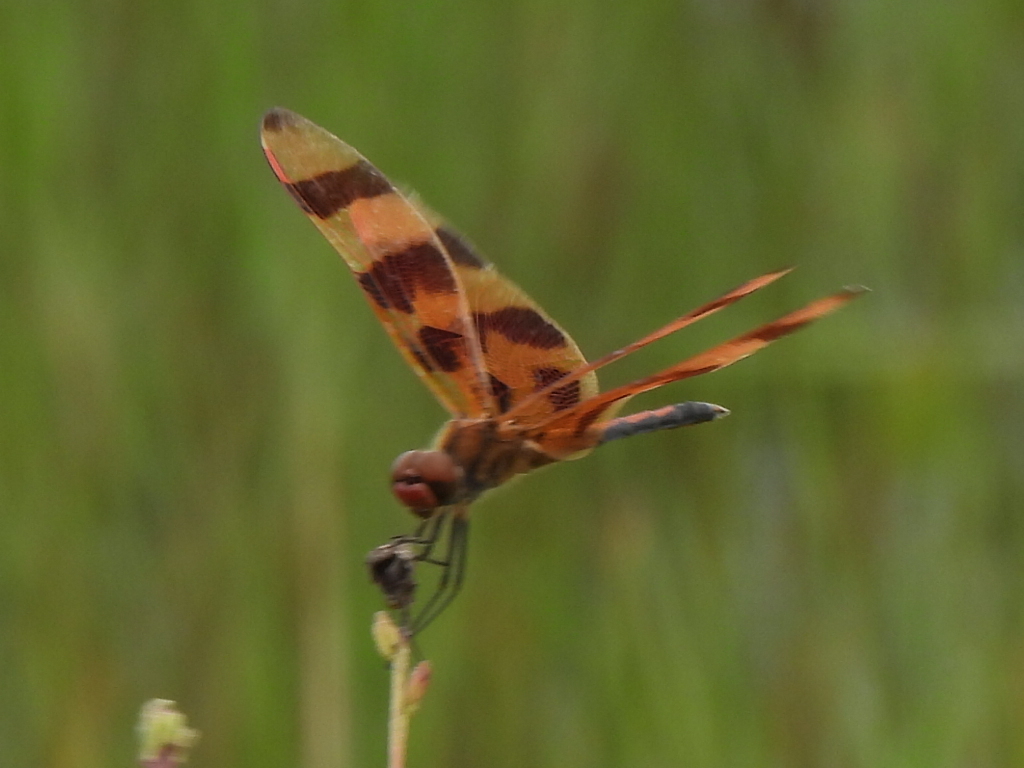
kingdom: Animalia
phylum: Arthropoda
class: Insecta
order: Odonata
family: Libellulidae
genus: Celithemis
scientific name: Celithemis eponina
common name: Halloween pennant
